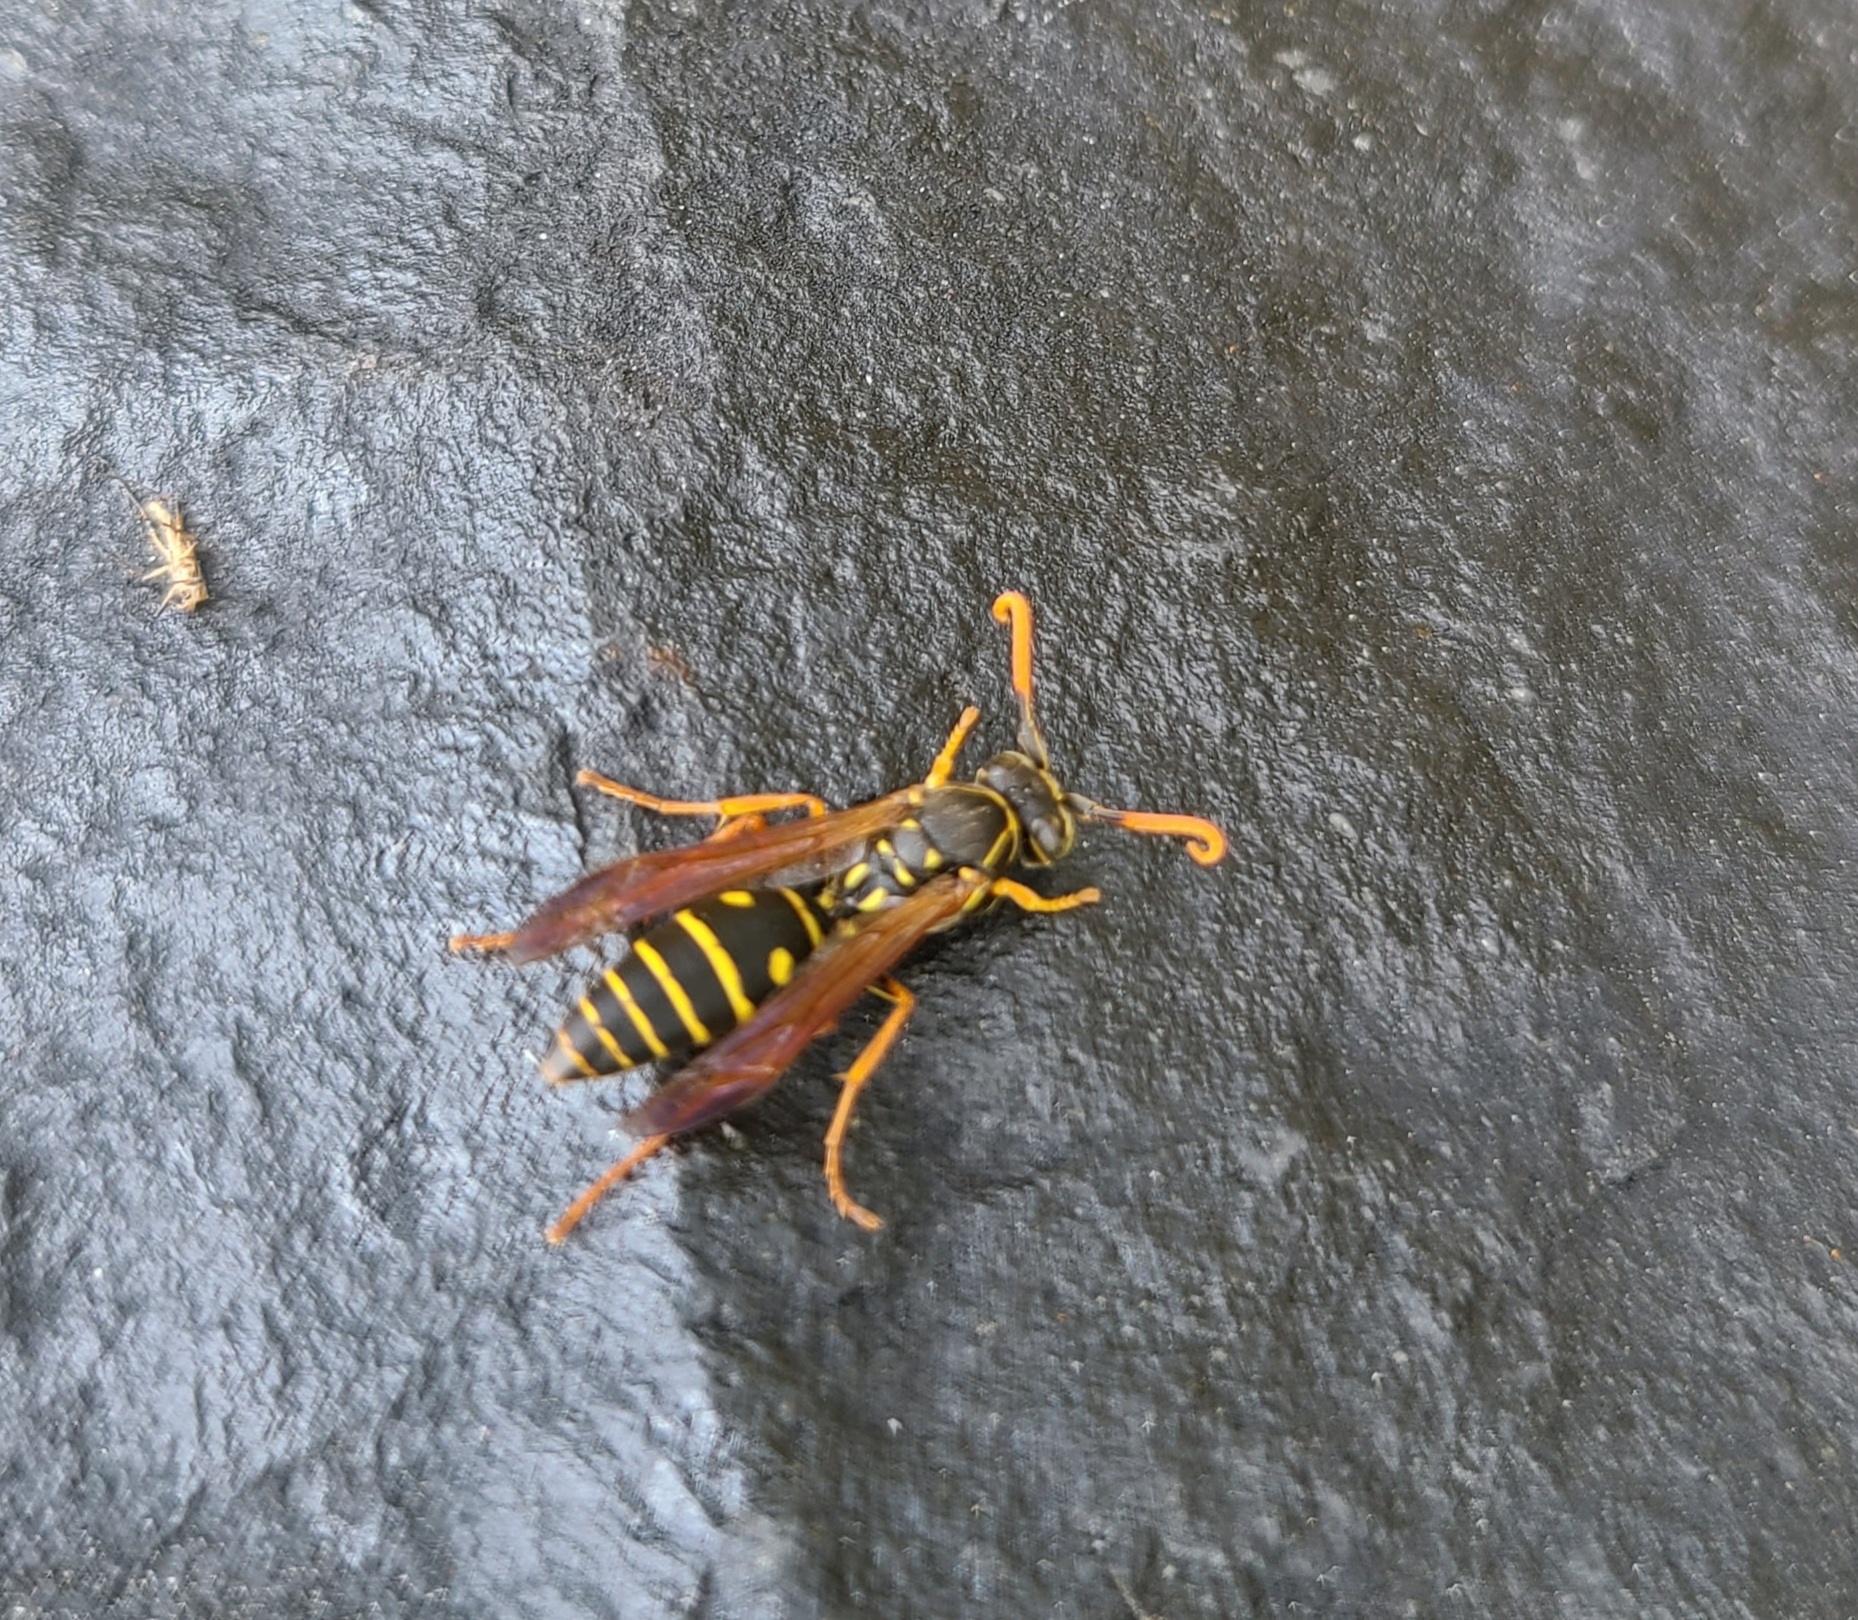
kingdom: Animalia
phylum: Arthropoda
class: Insecta
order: Hymenoptera
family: Eumenidae
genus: Polistes
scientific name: Polistes chinensis
